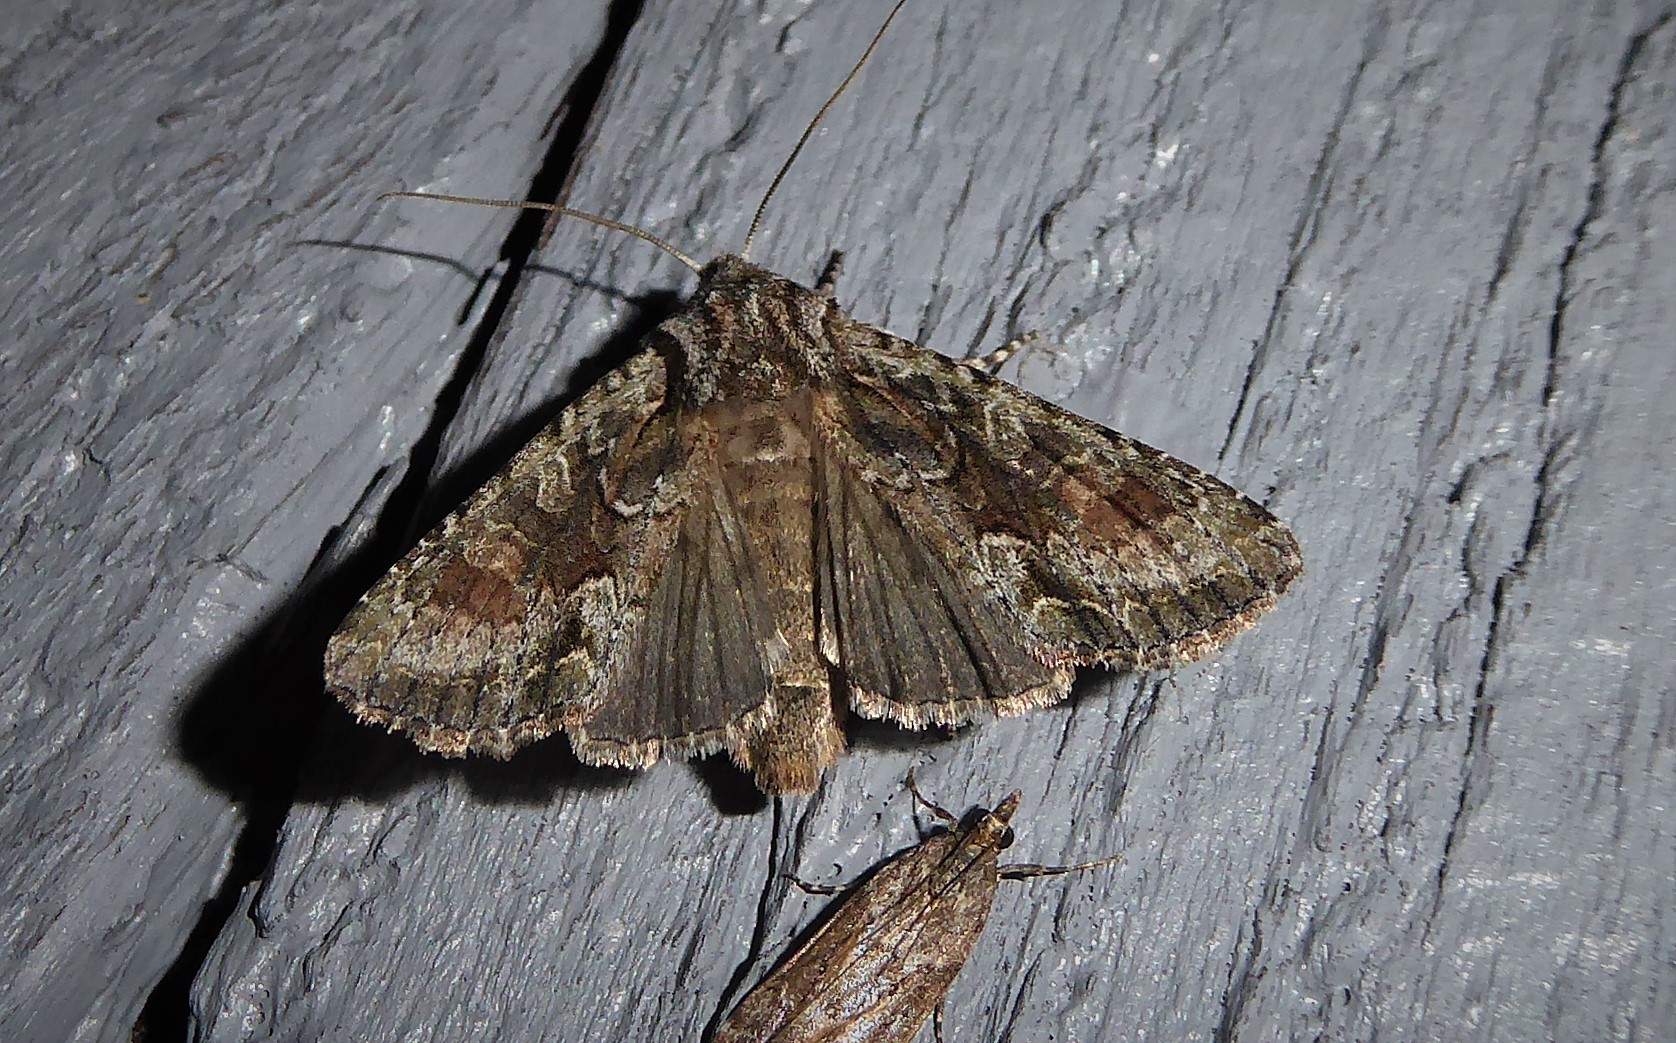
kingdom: Animalia
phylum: Arthropoda
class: Insecta
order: Lepidoptera
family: Noctuidae
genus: Ichneutica
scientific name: Ichneutica mutans
